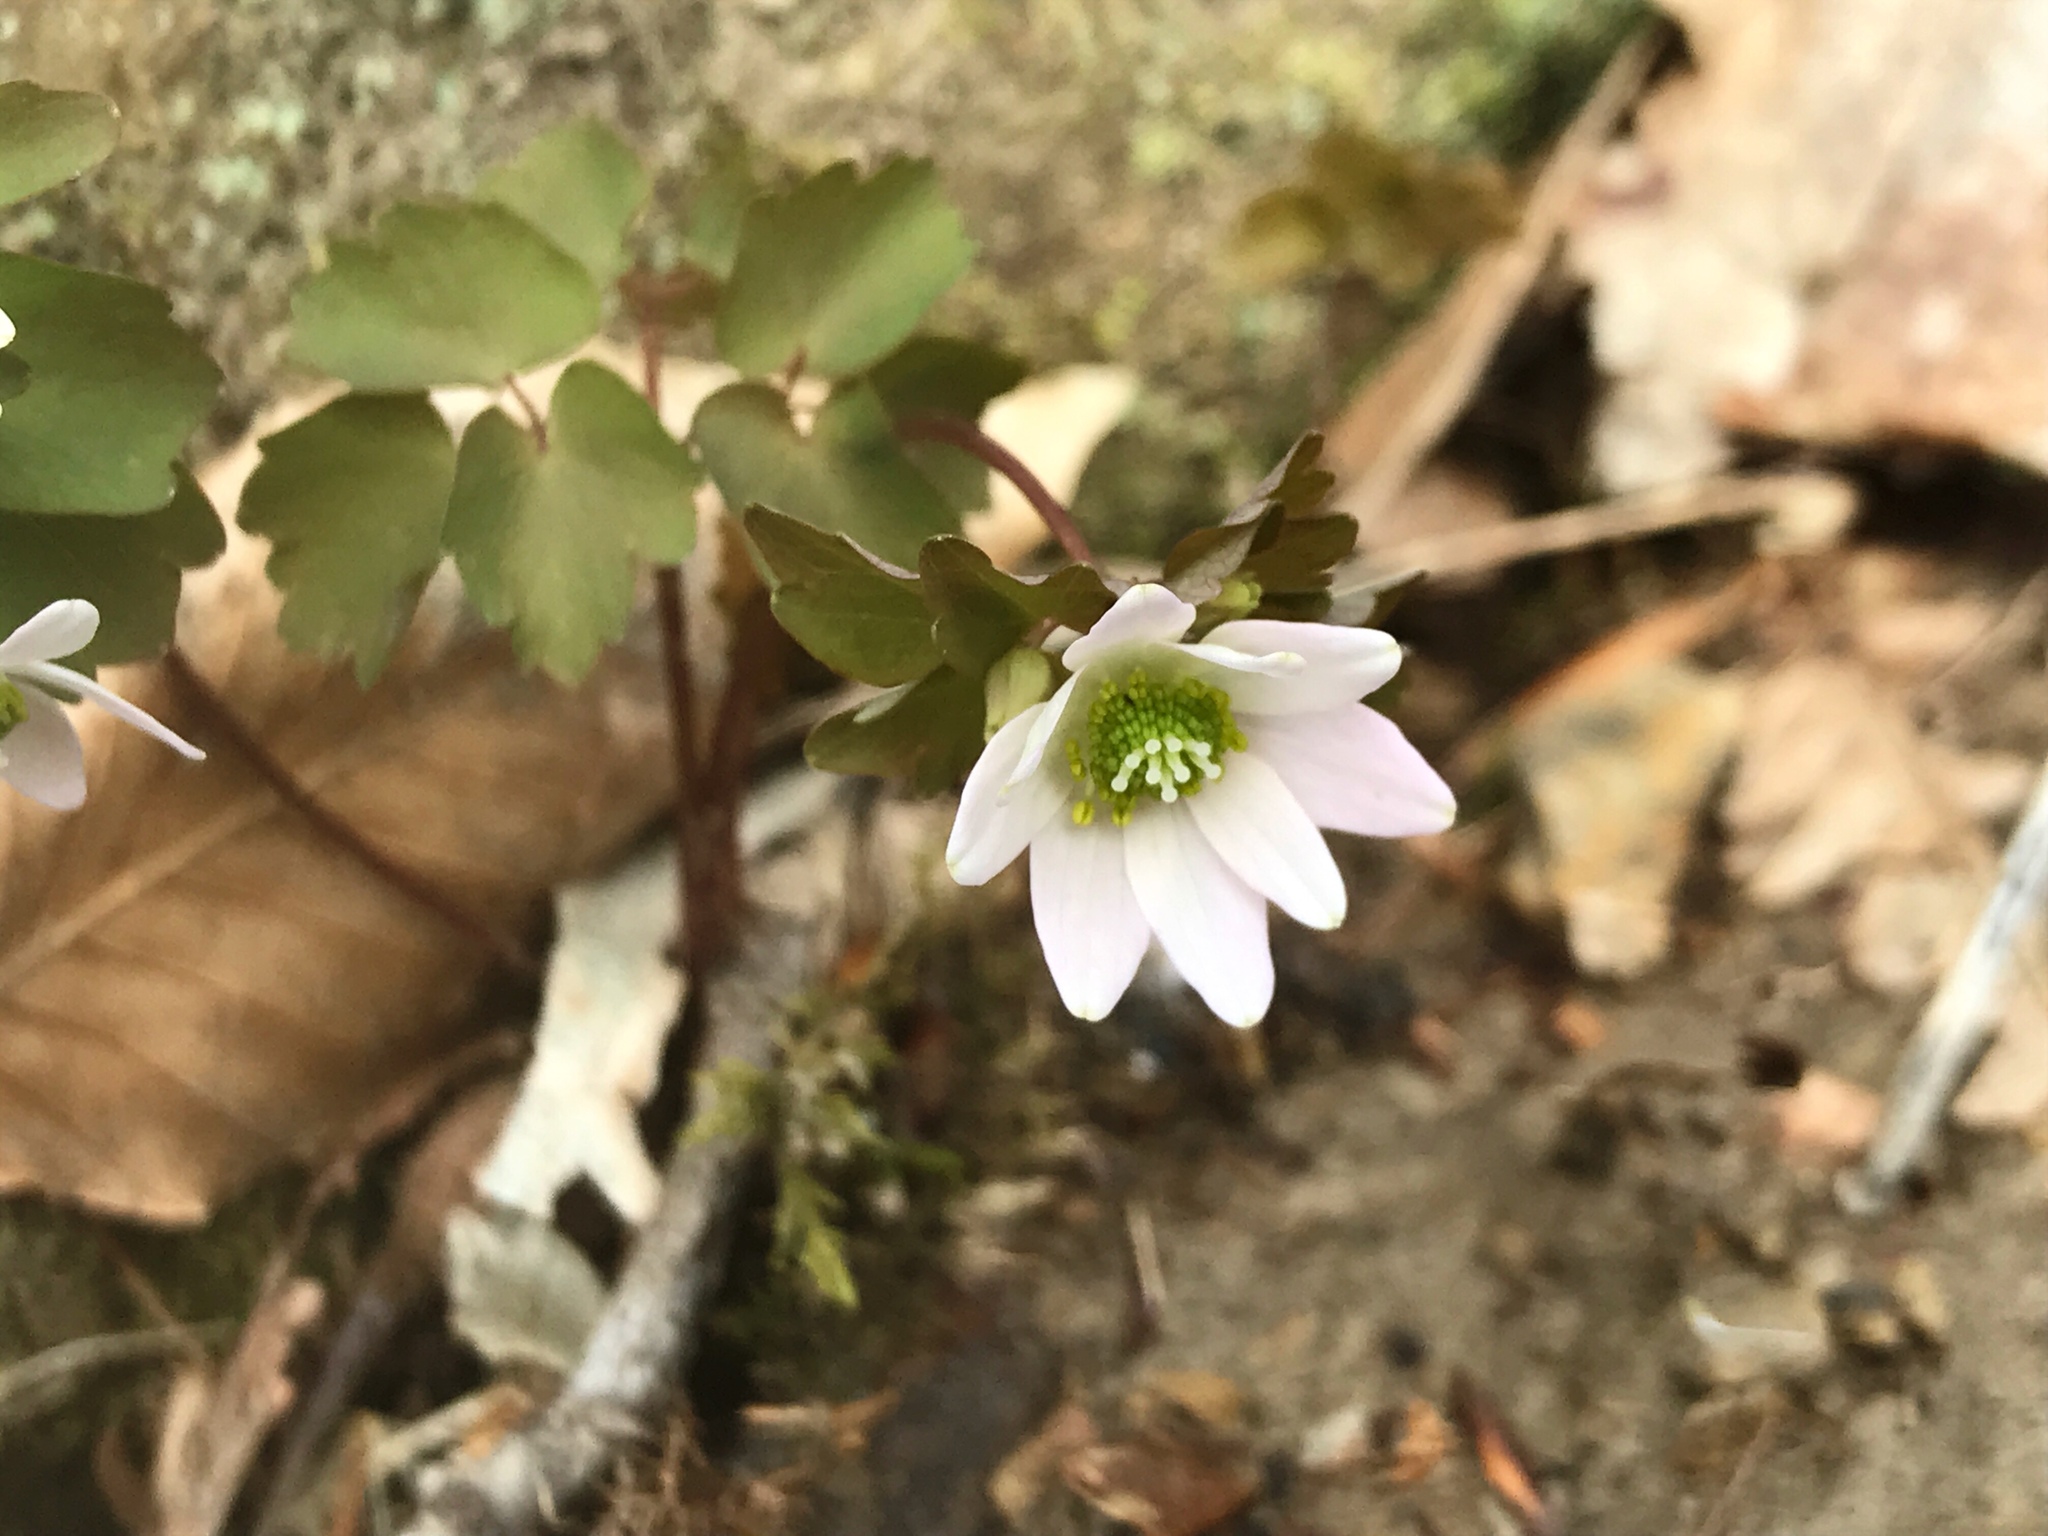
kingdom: Plantae
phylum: Tracheophyta
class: Magnoliopsida
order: Ranunculales
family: Ranunculaceae
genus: Thalictrum
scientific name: Thalictrum thalictroides
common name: Rue-anemone
